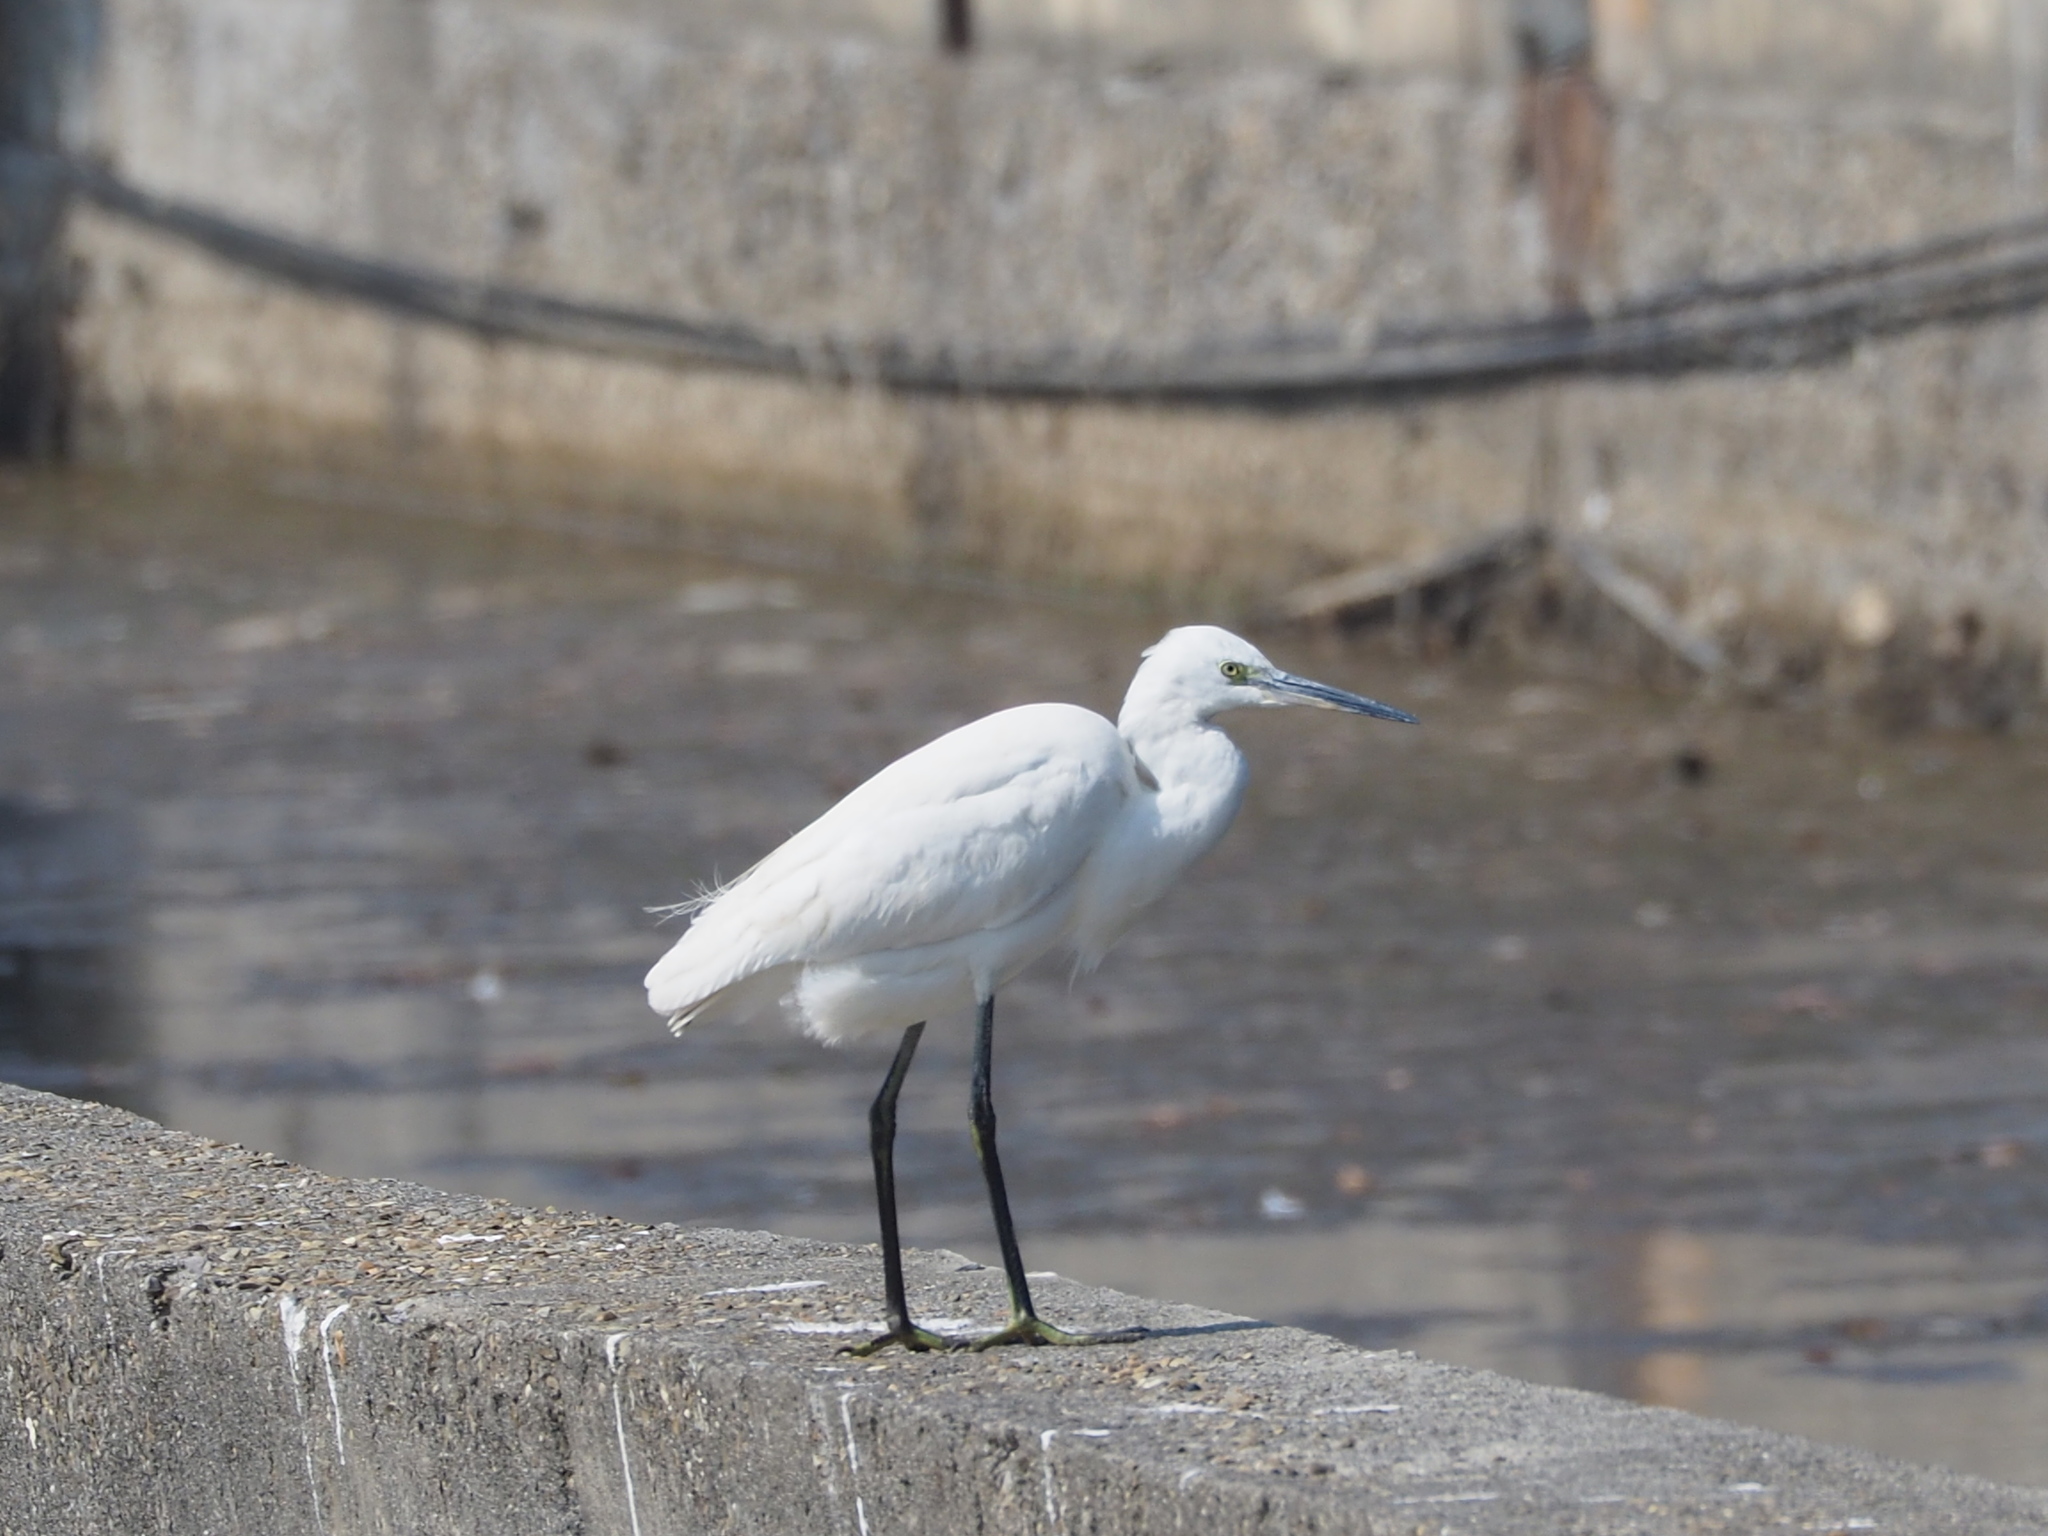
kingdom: Animalia
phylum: Chordata
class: Aves
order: Pelecaniformes
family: Ardeidae
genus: Egretta
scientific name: Egretta garzetta
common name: Little egret
